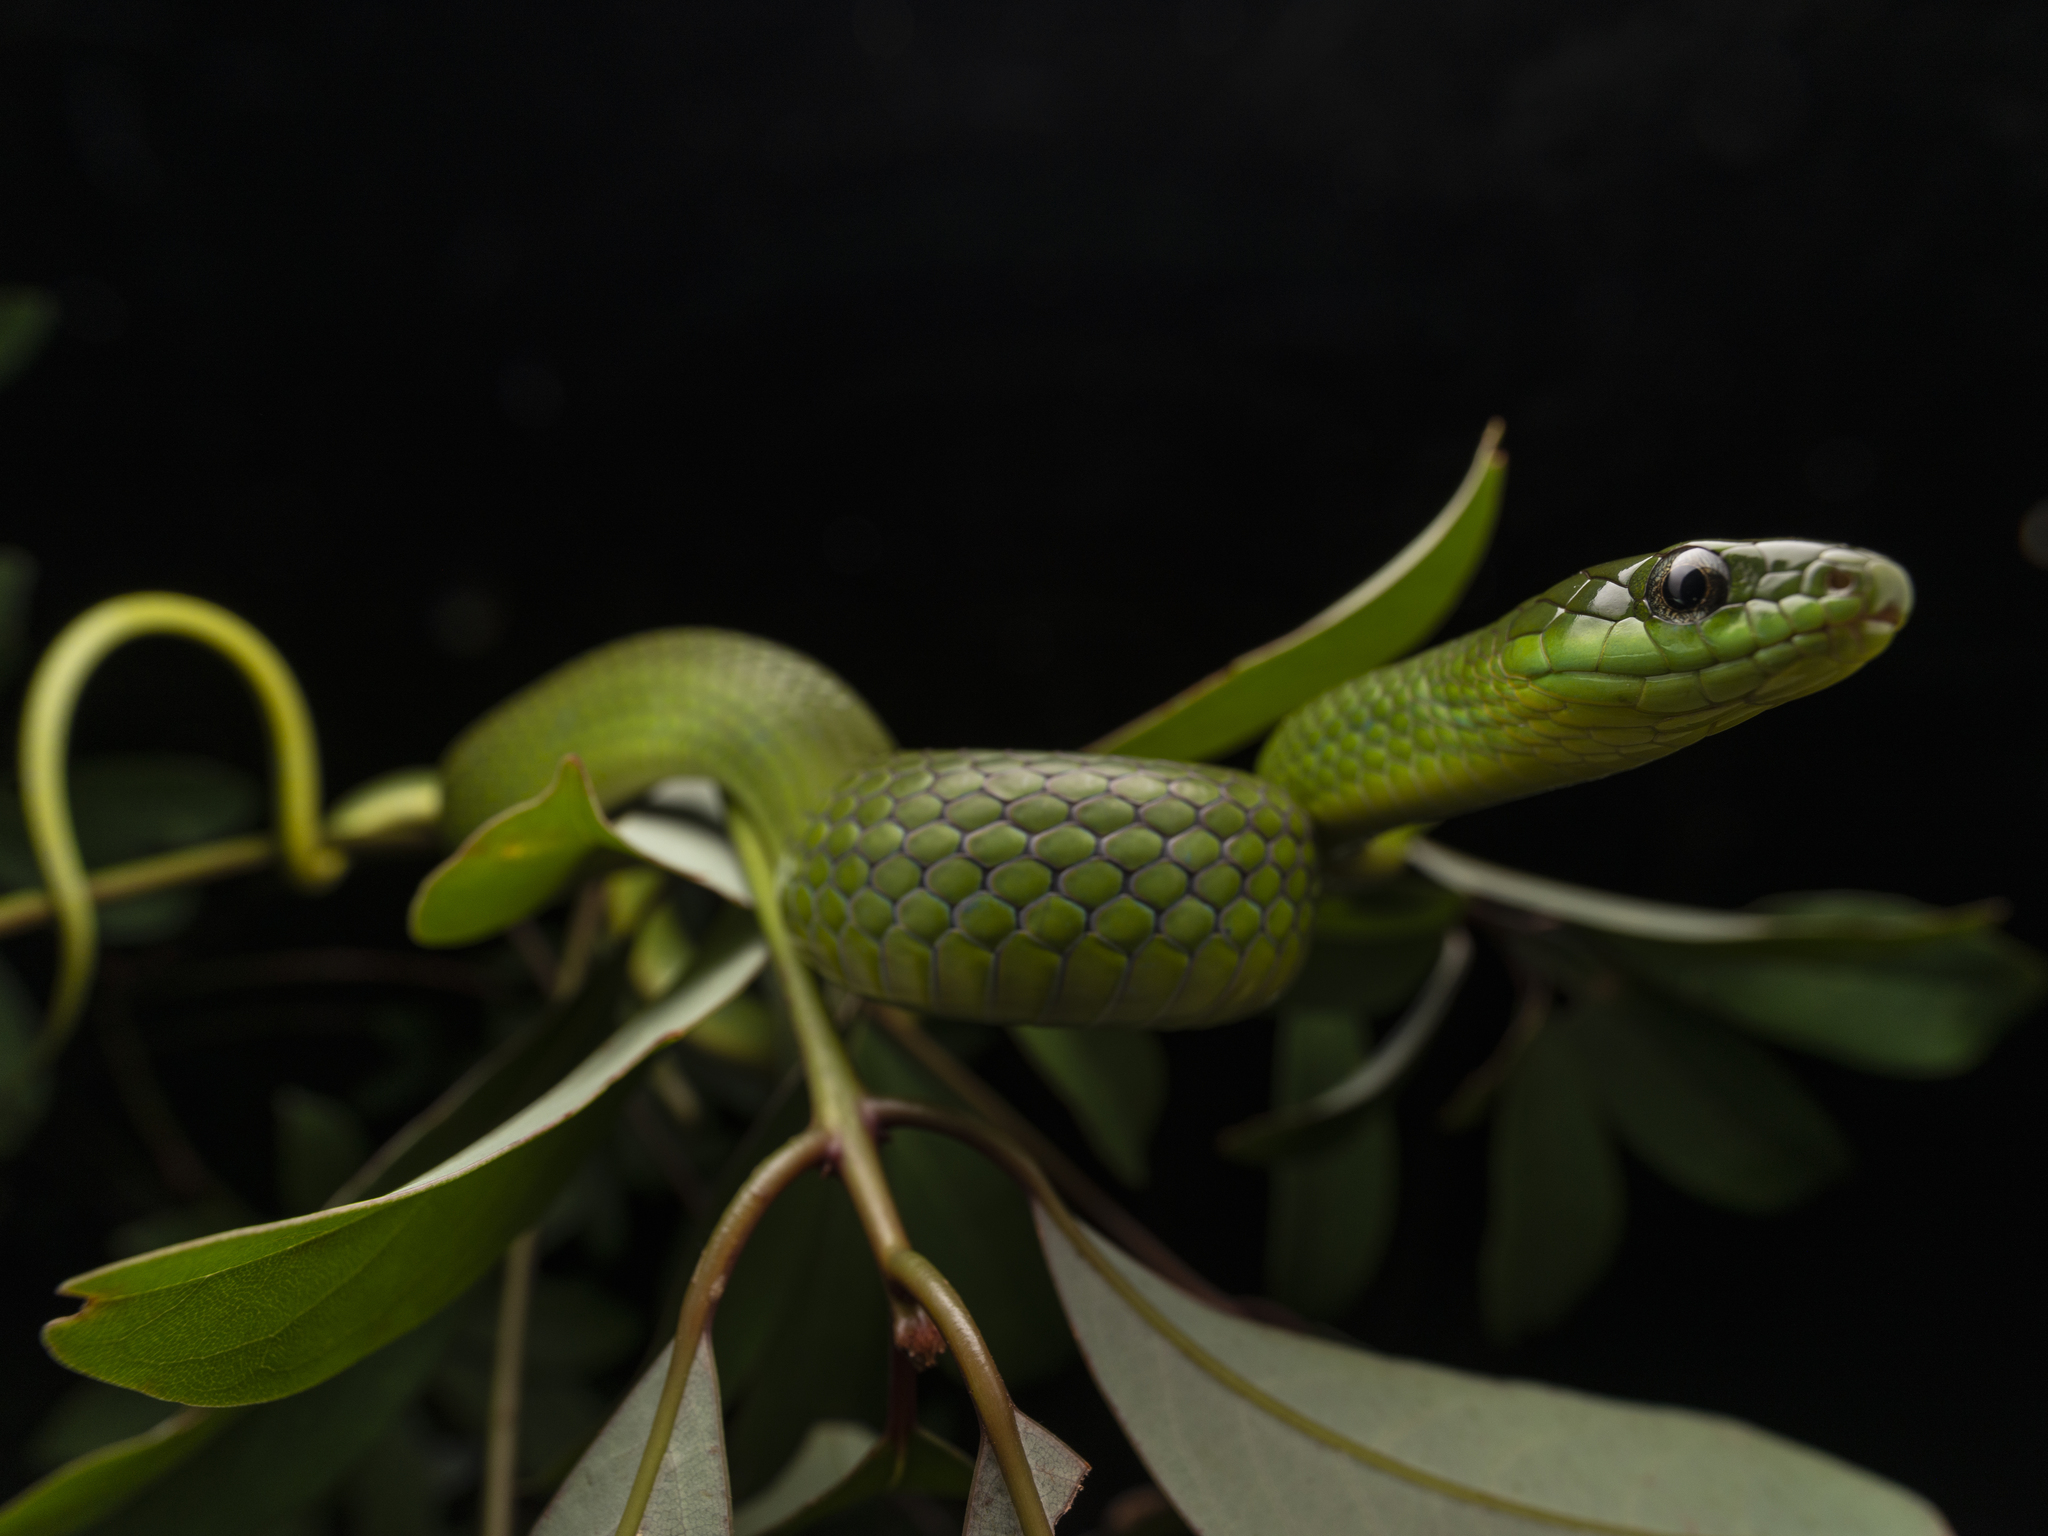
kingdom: Animalia
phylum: Chordata
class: Squamata
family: Colubridae
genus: Ptyas
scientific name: Ptyas major
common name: Chinese green snake
